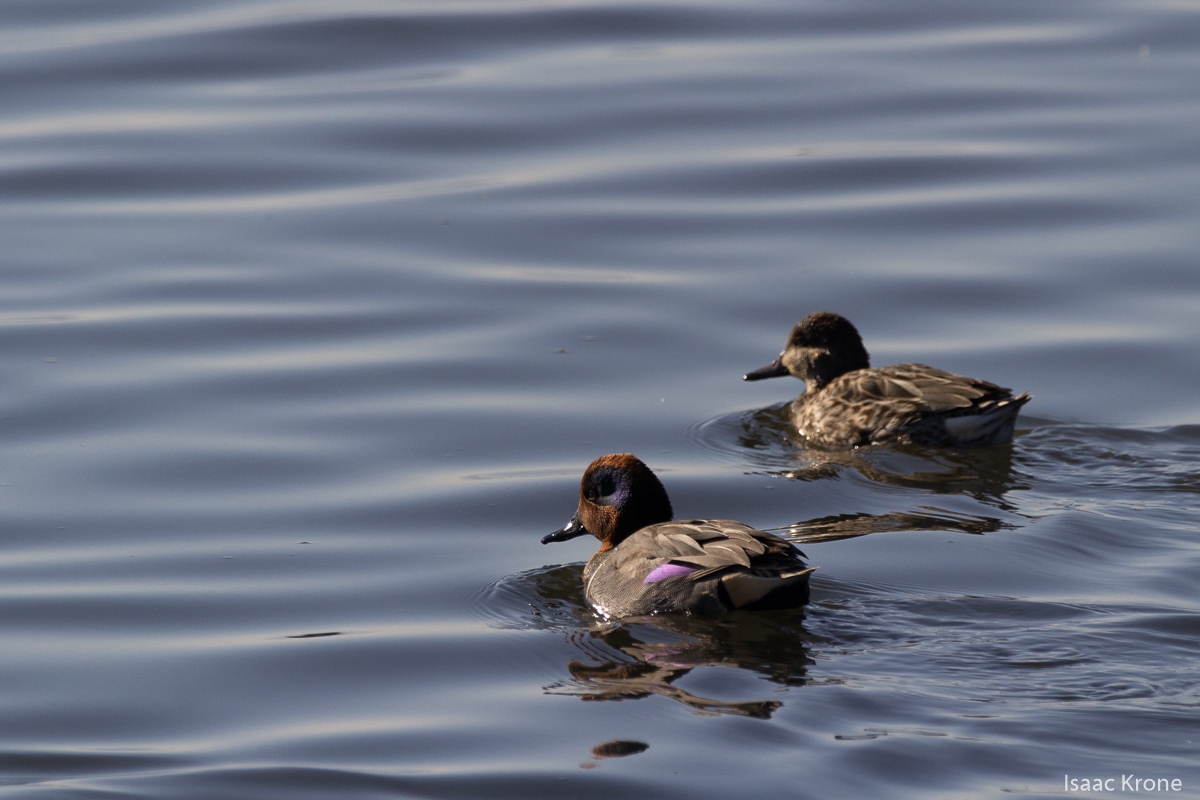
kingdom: Animalia
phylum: Chordata
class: Aves
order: Anseriformes
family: Anatidae
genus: Anas
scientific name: Anas crecca
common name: Eurasian teal
